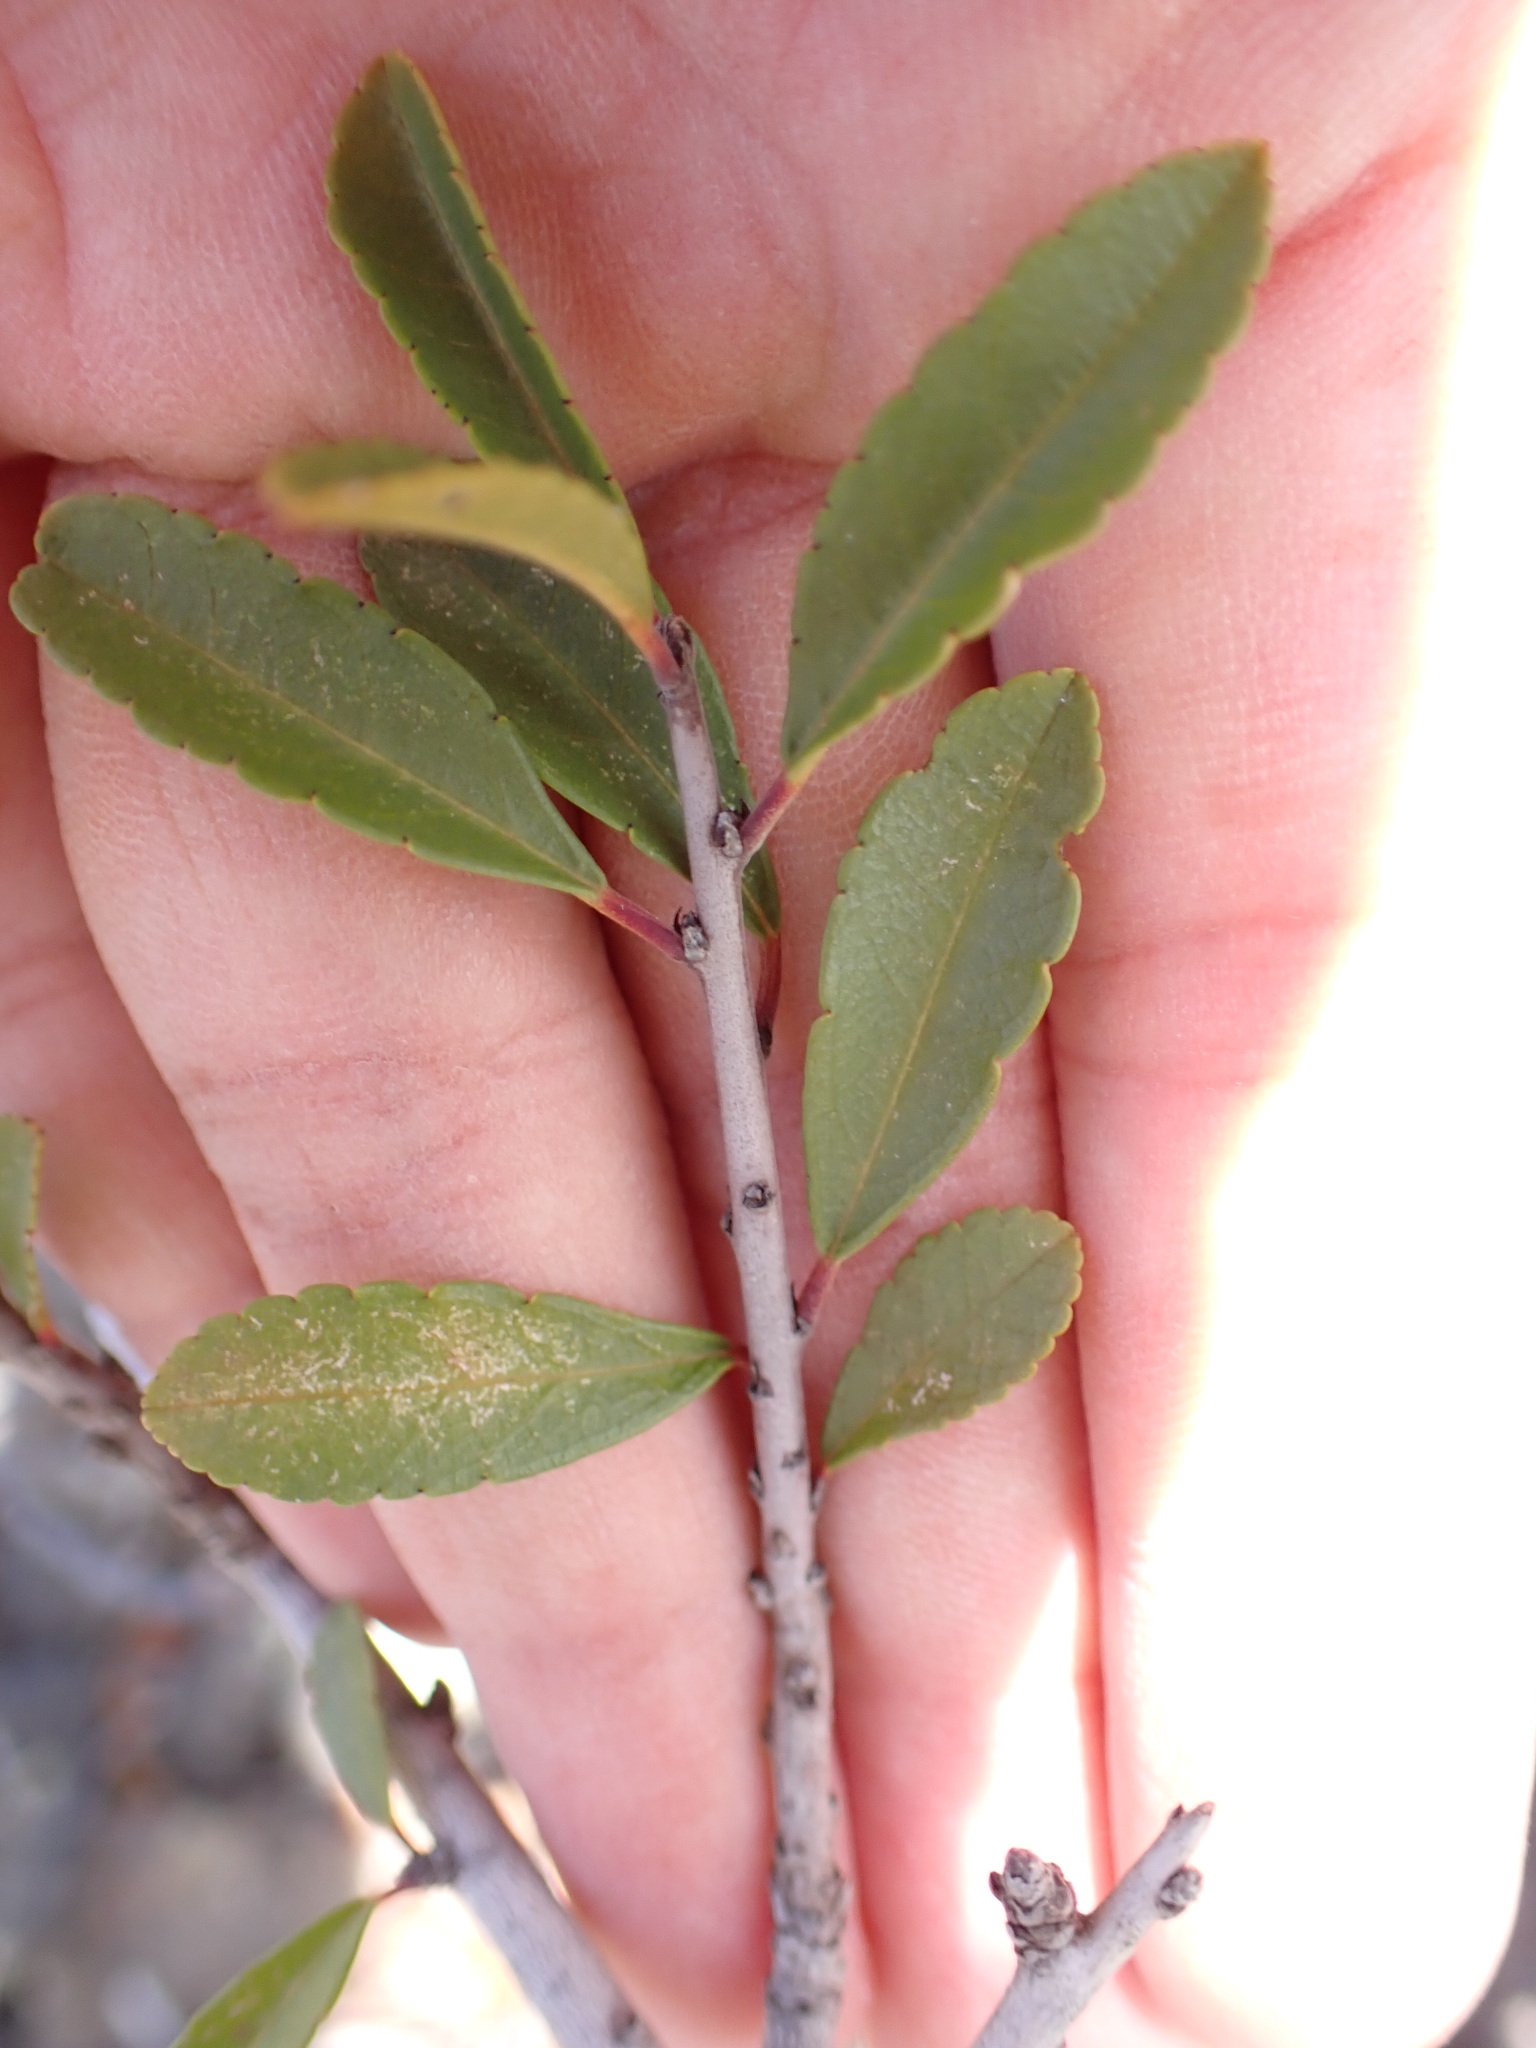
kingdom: Plantae
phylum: Tracheophyta
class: Magnoliopsida
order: Rosales
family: Rhamnaceae
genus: Rhamnus
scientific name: Rhamnus crenulata
